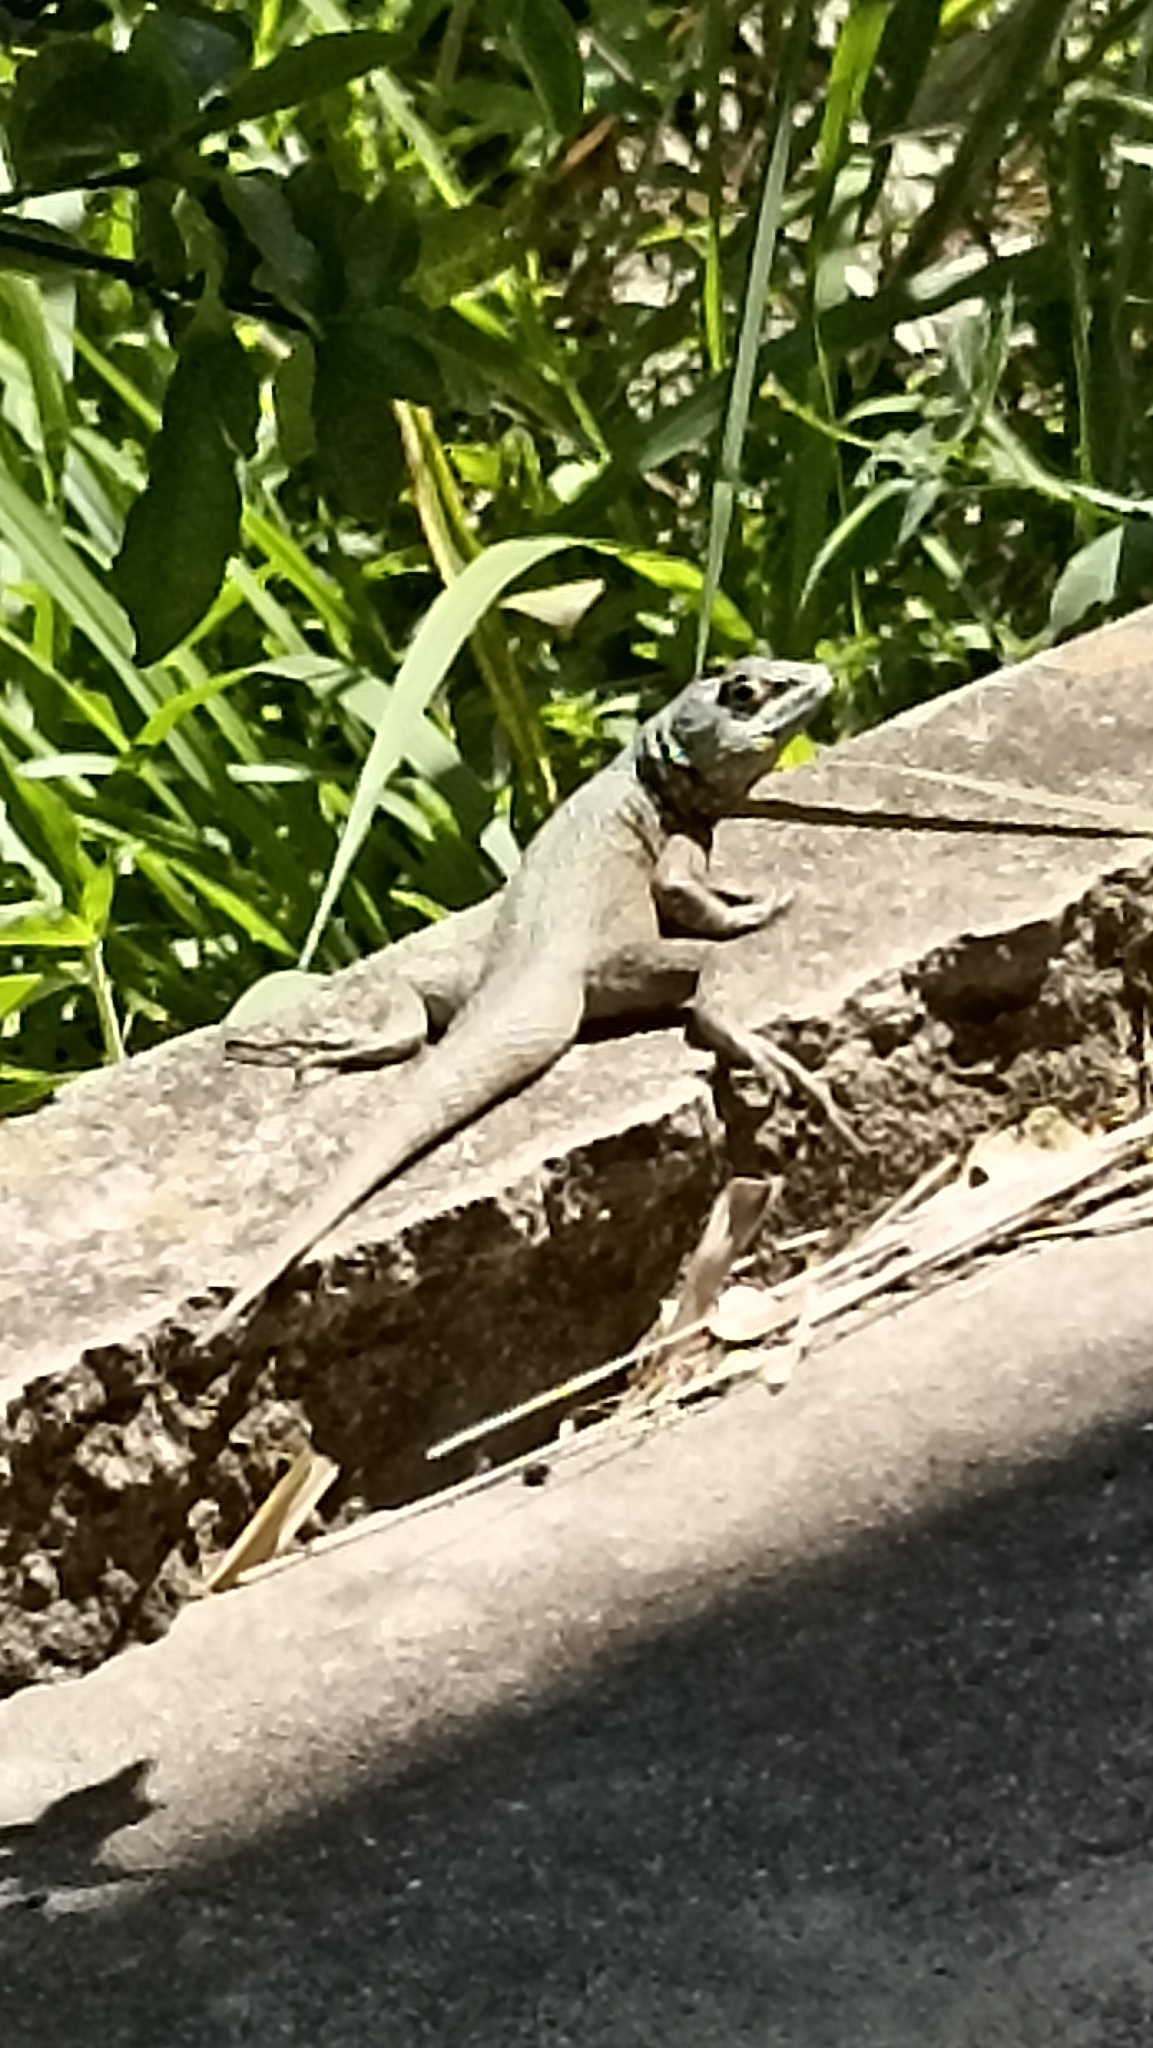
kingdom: Animalia
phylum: Chordata
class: Squamata
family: Tropiduridae
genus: Tropidurus
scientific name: Tropidurus torquatus
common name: Amazon lava lizard
